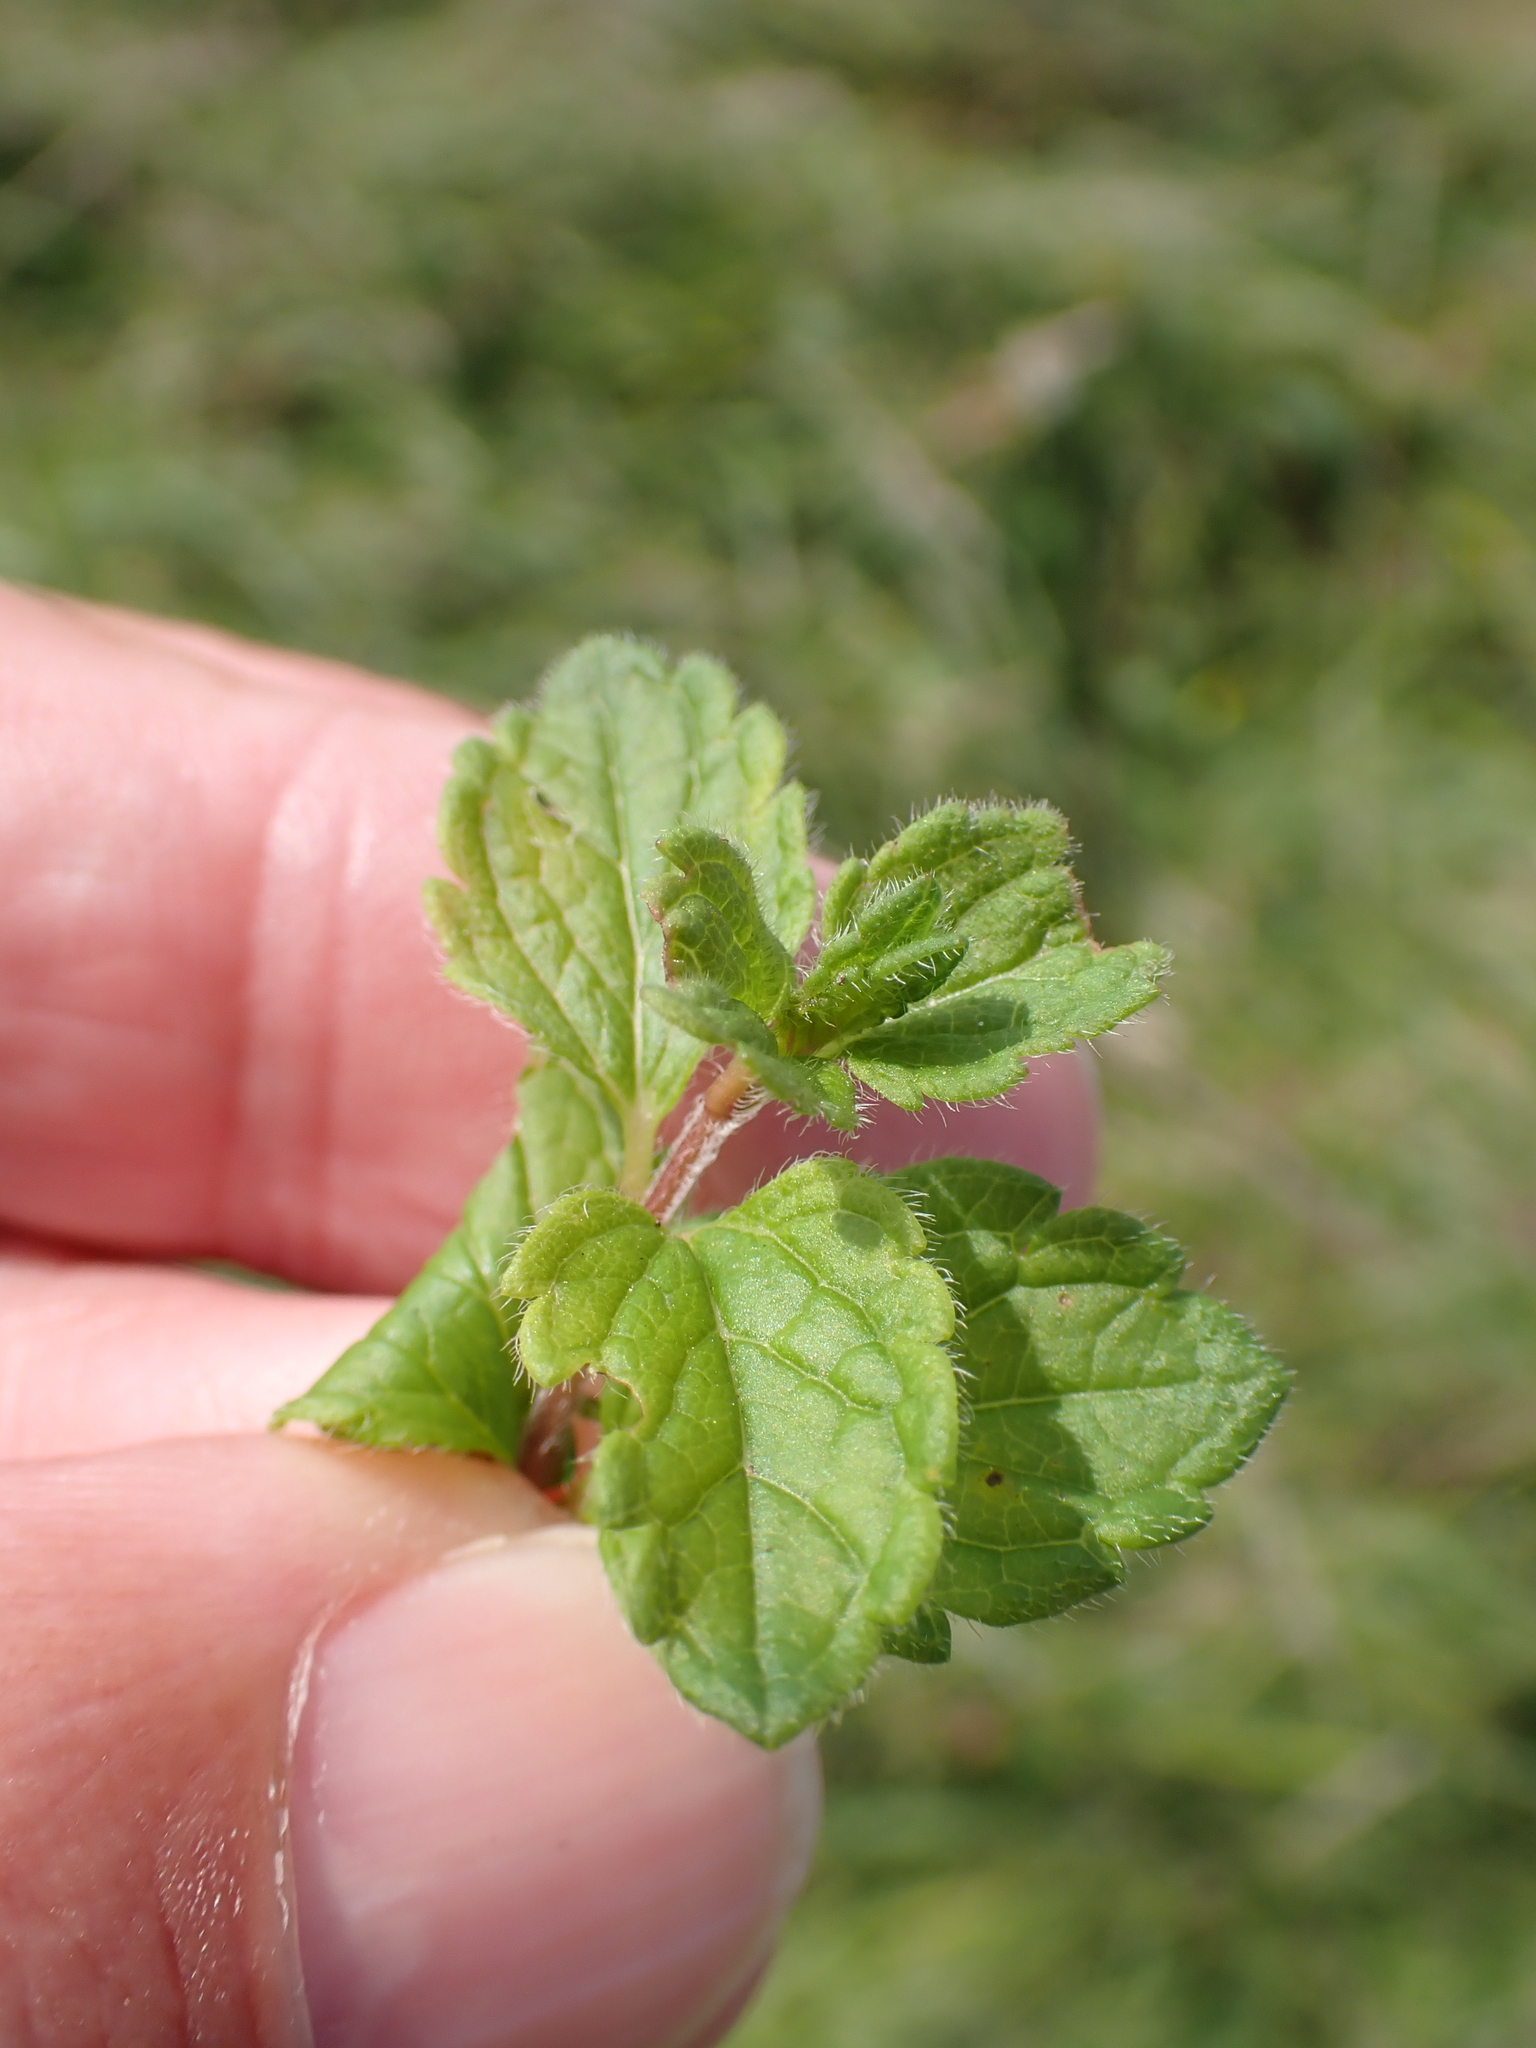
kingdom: Plantae
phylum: Tracheophyta
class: Magnoliopsida
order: Lamiales
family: Plantaginaceae
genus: Veronica
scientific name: Veronica chamaedrys
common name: Germander speedwell
